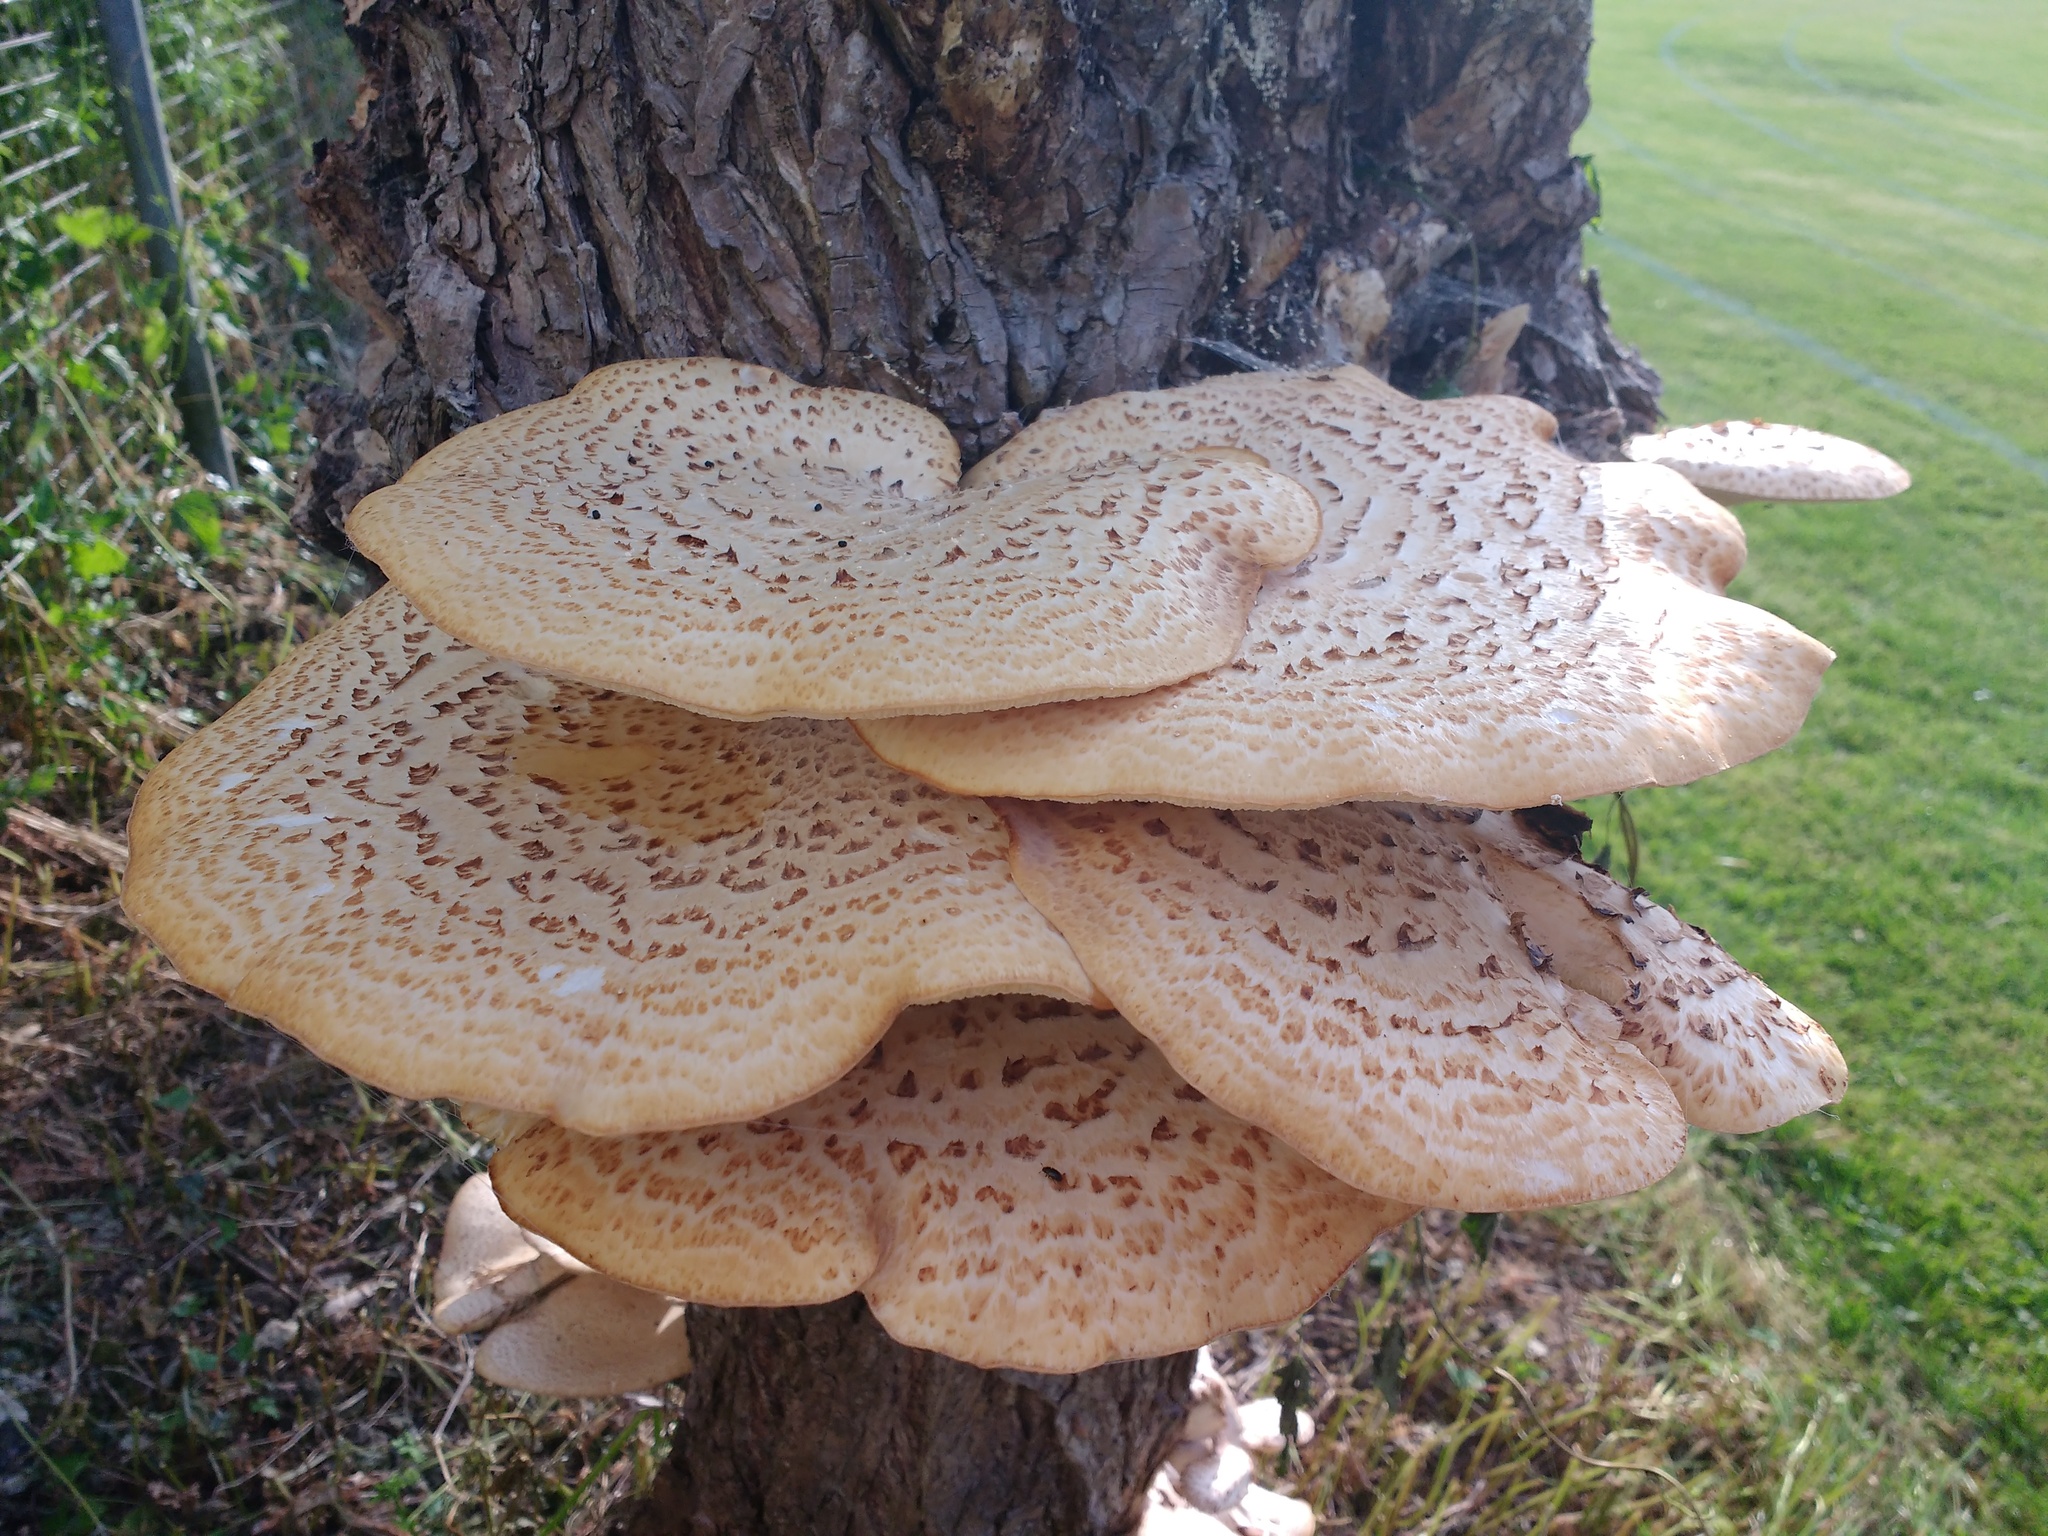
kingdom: Fungi
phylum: Basidiomycota
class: Agaricomycetes
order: Polyporales
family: Polyporaceae
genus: Cerioporus
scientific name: Cerioporus squamosus
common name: Dryad's saddle
